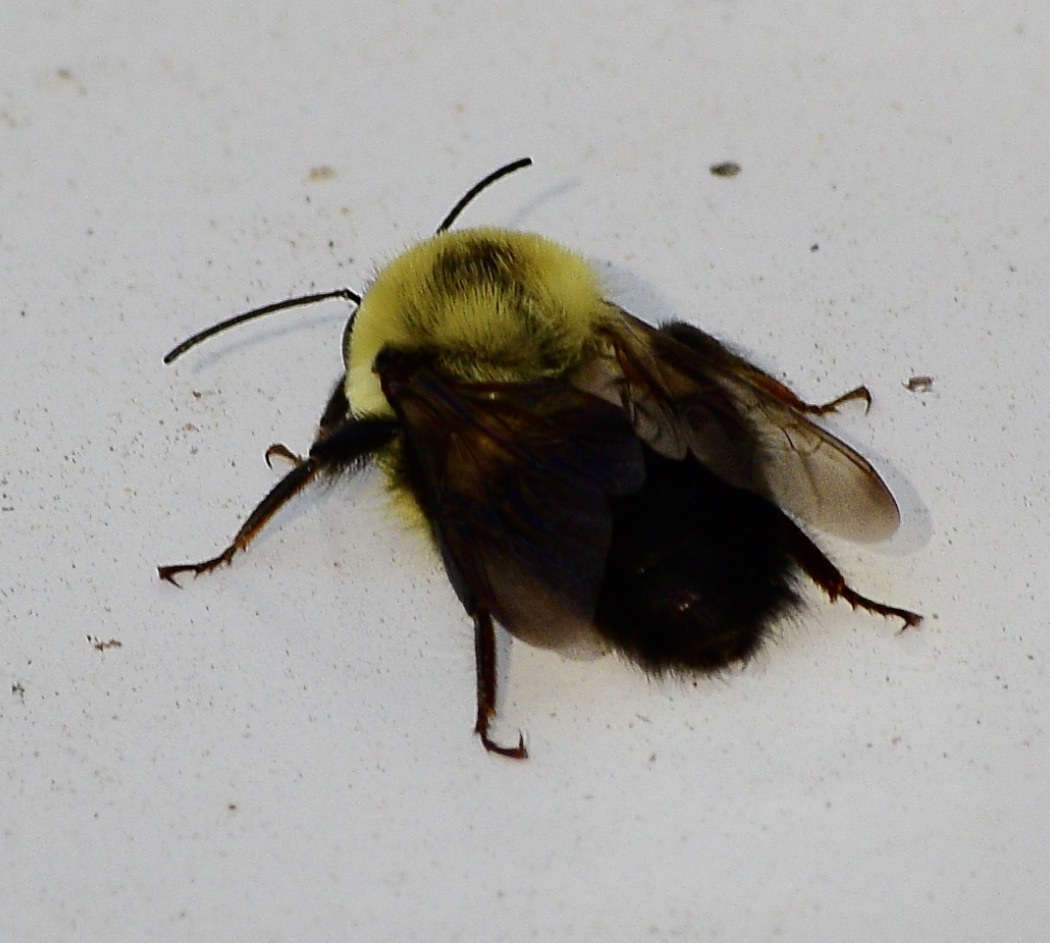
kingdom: Animalia
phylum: Arthropoda
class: Insecta
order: Hymenoptera
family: Apidae
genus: Bombus
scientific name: Bombus bimaculatus
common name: Two-spotted bumble bee
